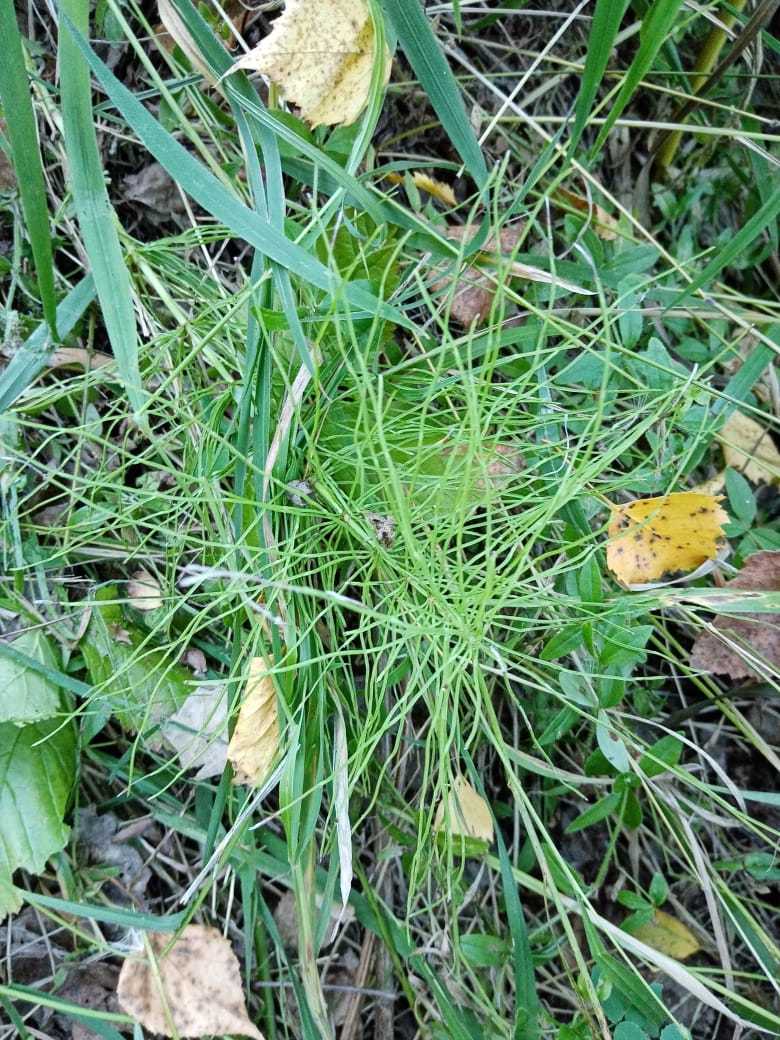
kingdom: Plantae
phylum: Tracheophyta
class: Polypodiopsida
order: Equisetales
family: Equisetaceae
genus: Equisetum
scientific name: Equisetum pratense
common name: Meadow horsetail
